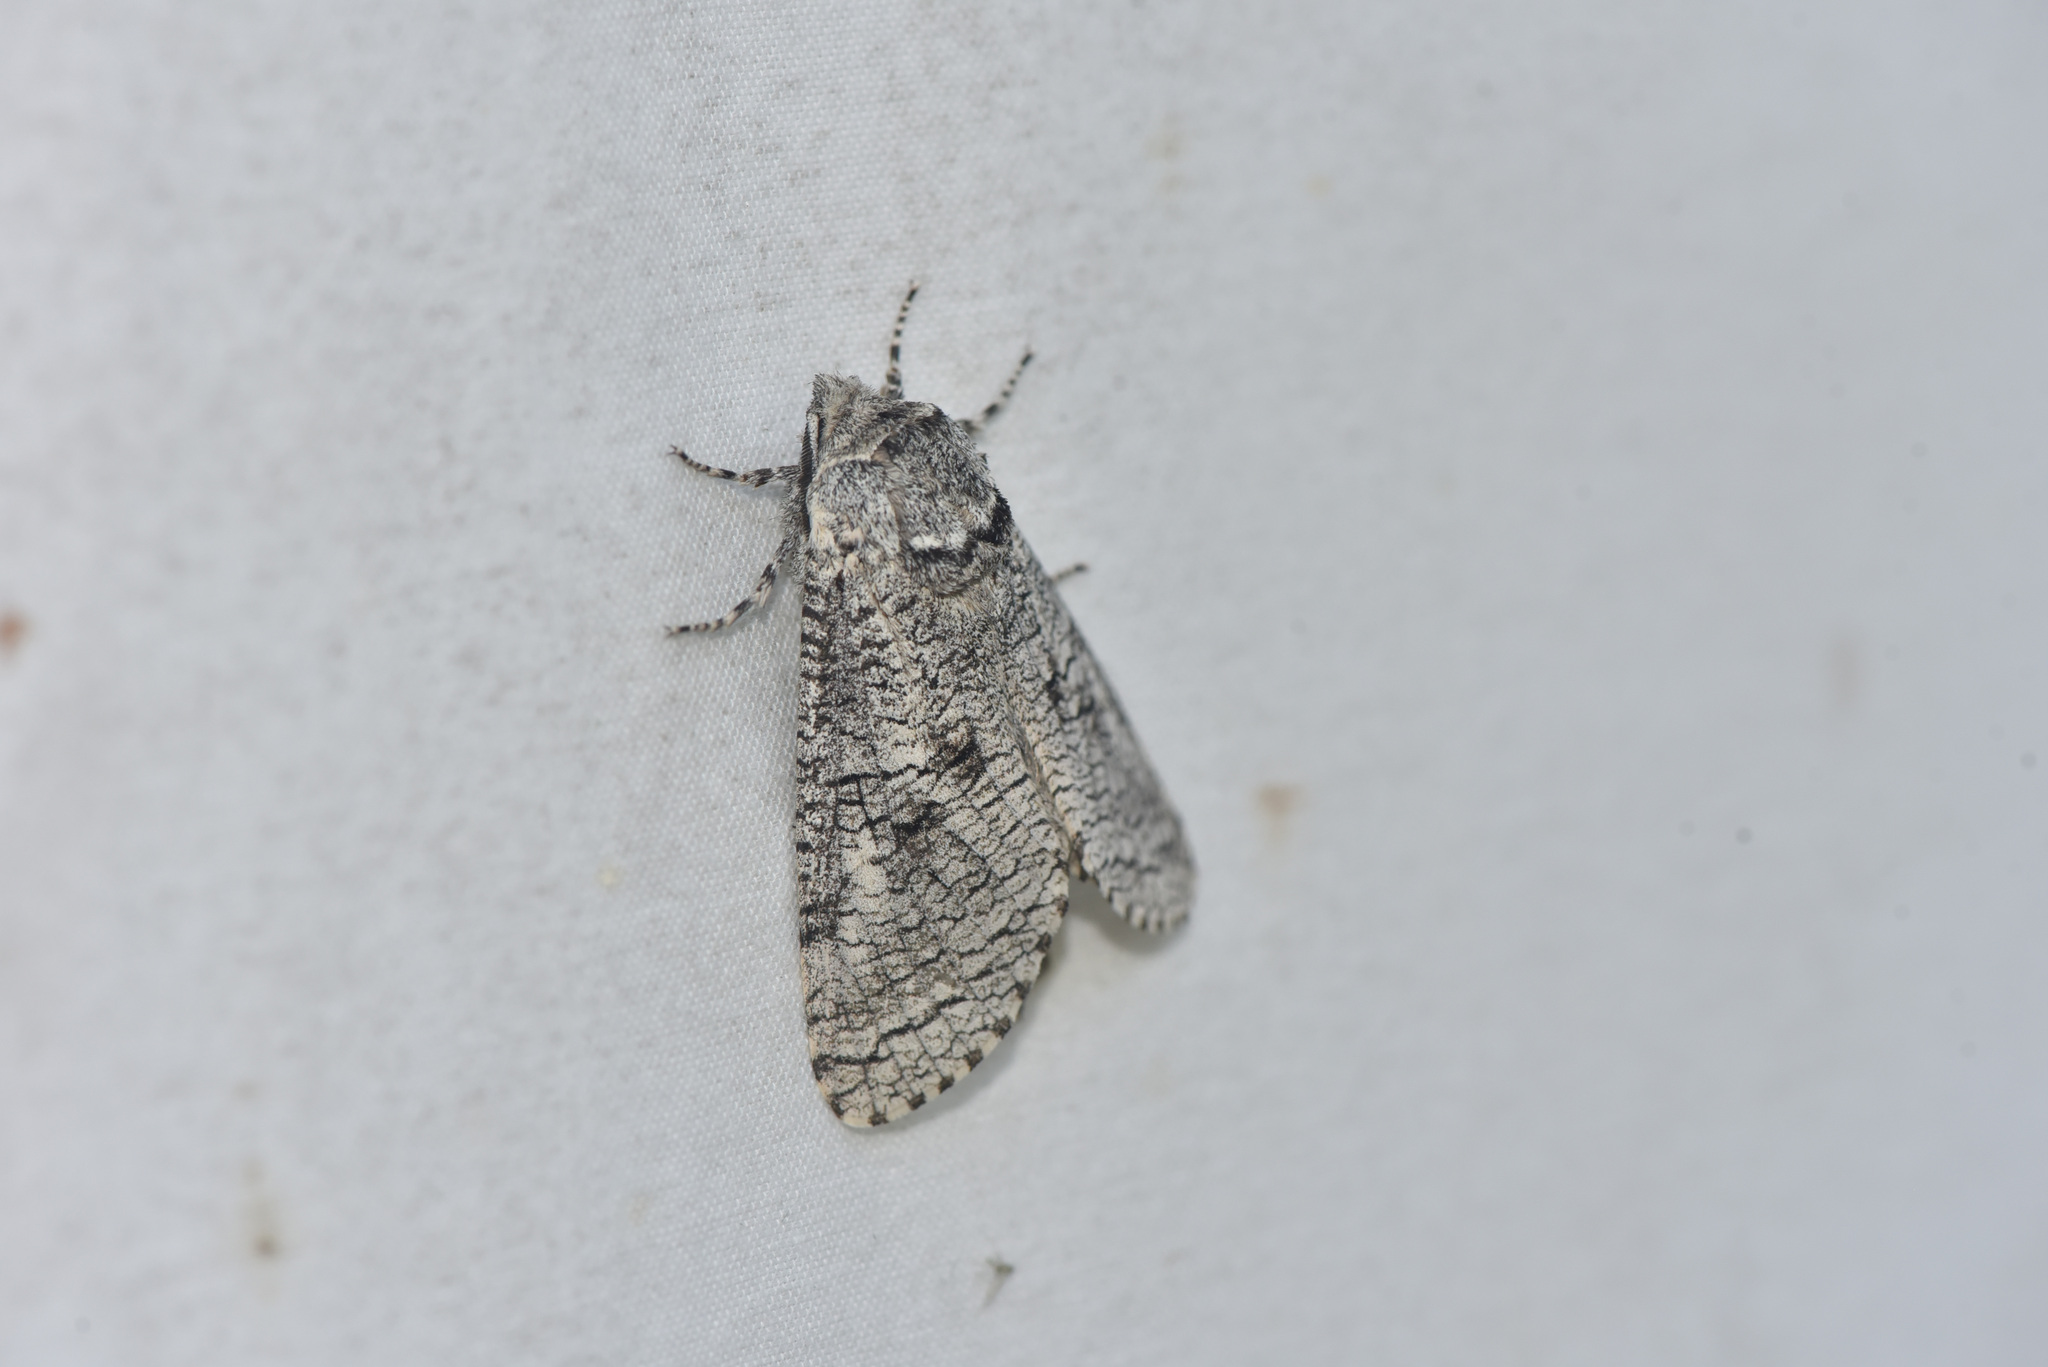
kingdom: Animalia
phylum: Arthropoda
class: Insecta
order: Lepidoptera
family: Cossidae
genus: Acossus
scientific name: Acossus populi
